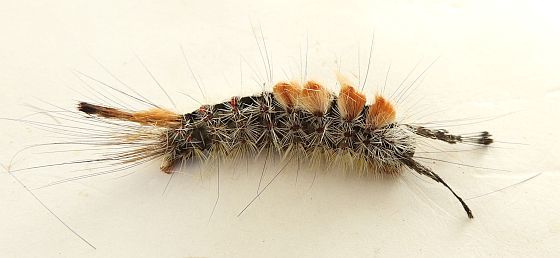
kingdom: Animalia
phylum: Arthropoda
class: Insecta
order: Lepidoptera
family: Erebidae
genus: Orgyia
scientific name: Orgyia pseudotsugata
